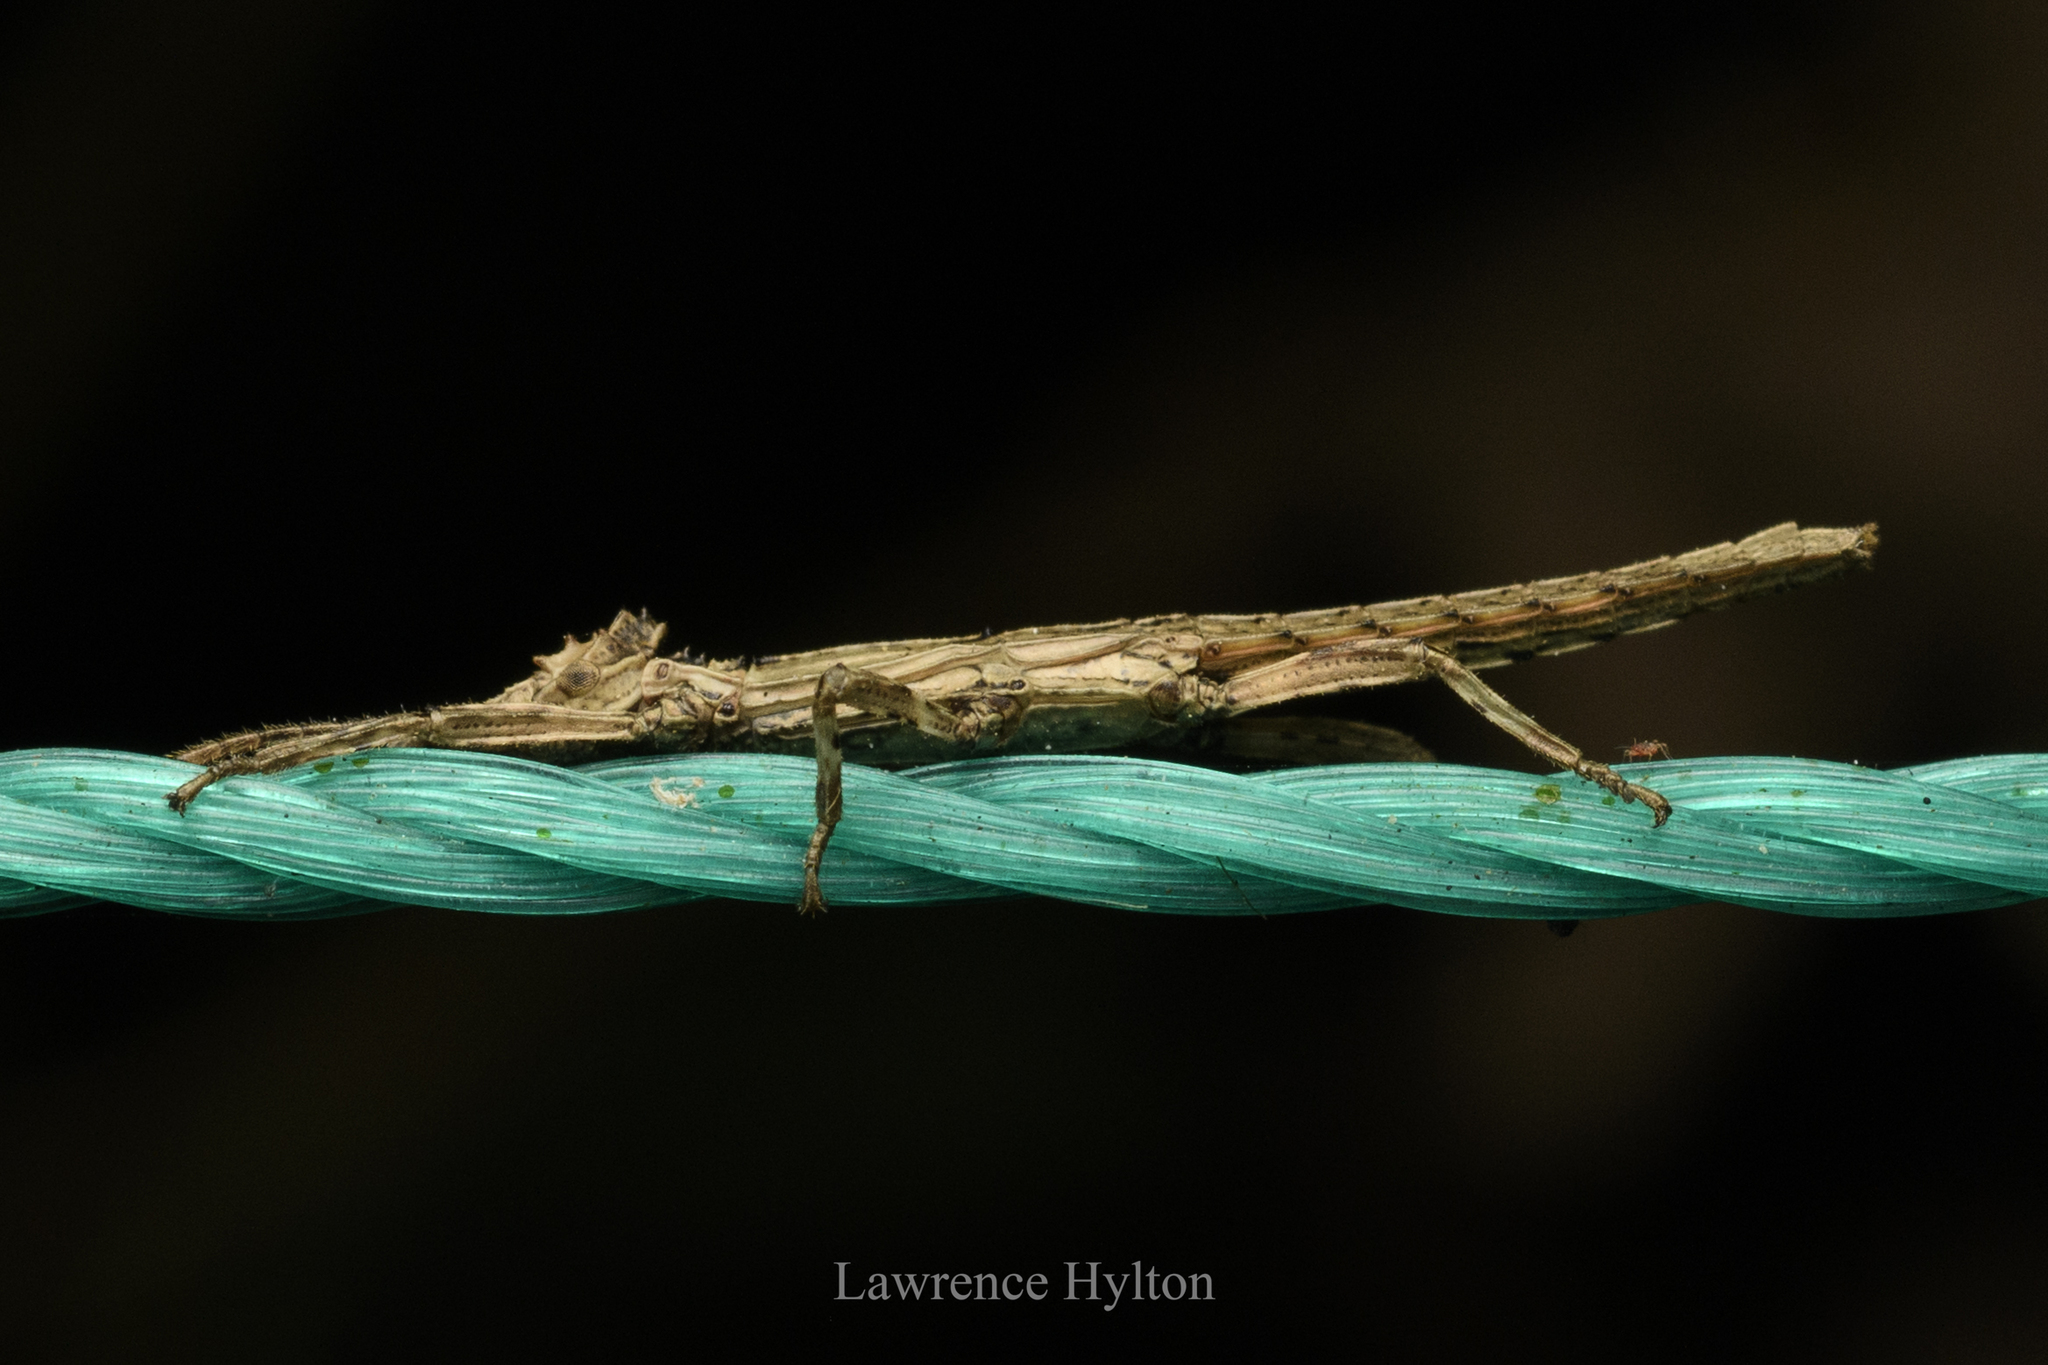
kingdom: Animalia
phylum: Arthropoda
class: Insecta
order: Phasmida
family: Heteropterygidae
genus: Orestes
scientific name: Orestes guangxiensis
